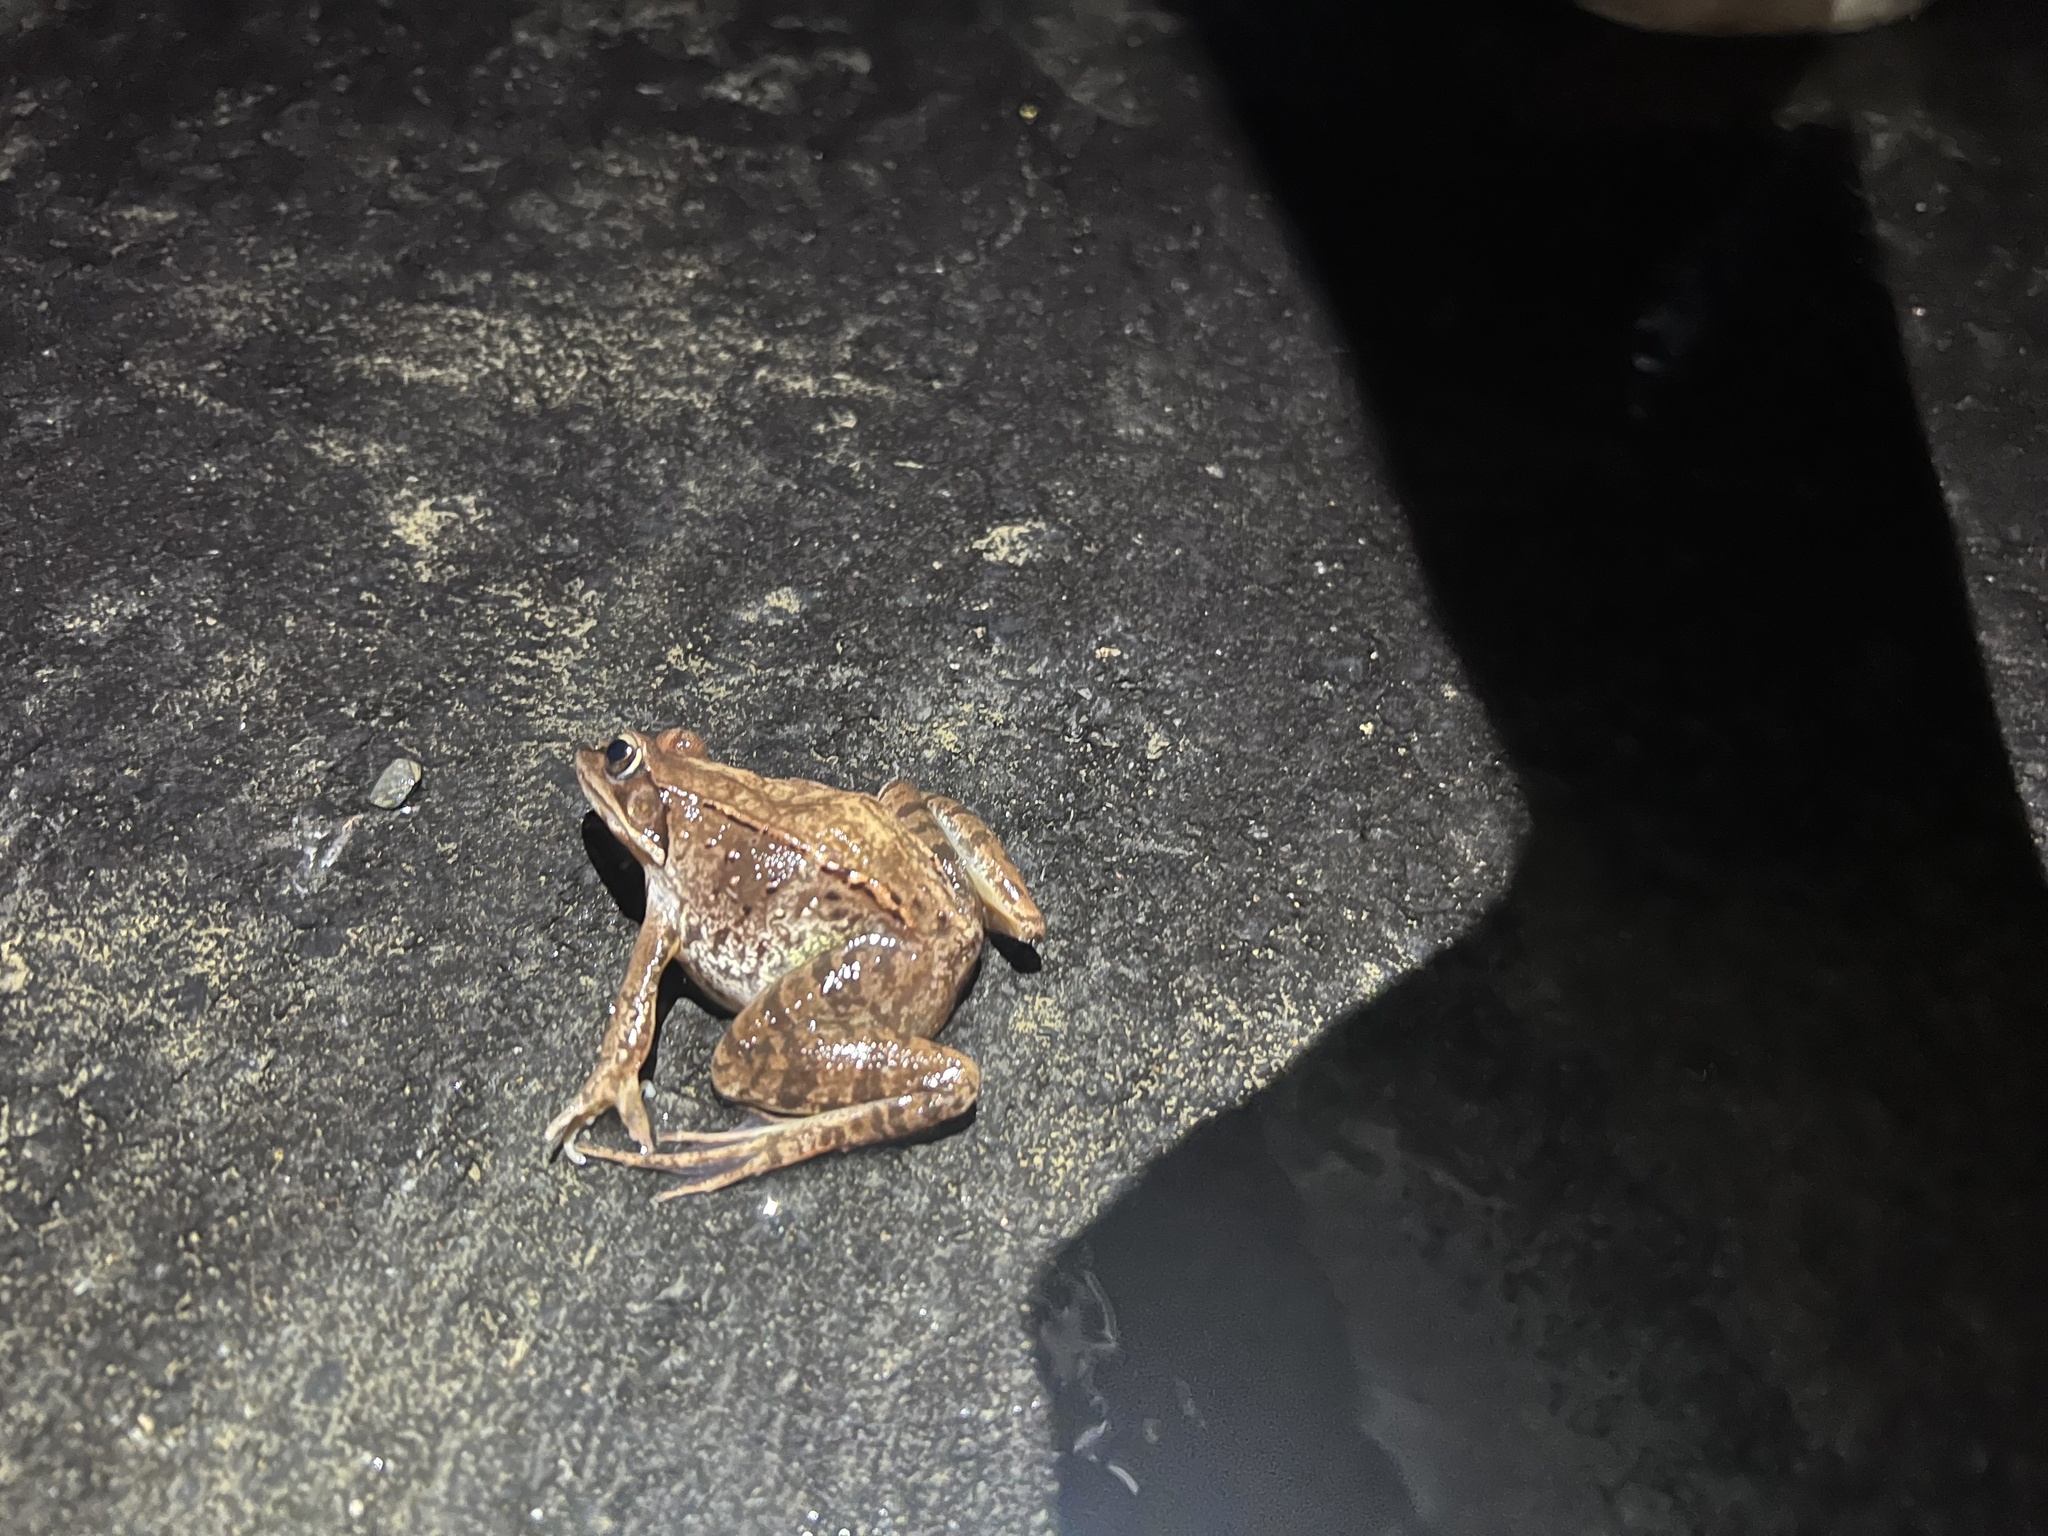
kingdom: Animalia
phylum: Chordata
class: Amphibia
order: Anura
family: Ranidae
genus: Lithobates
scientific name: Lithobates sylvaticus
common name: Wood frog
